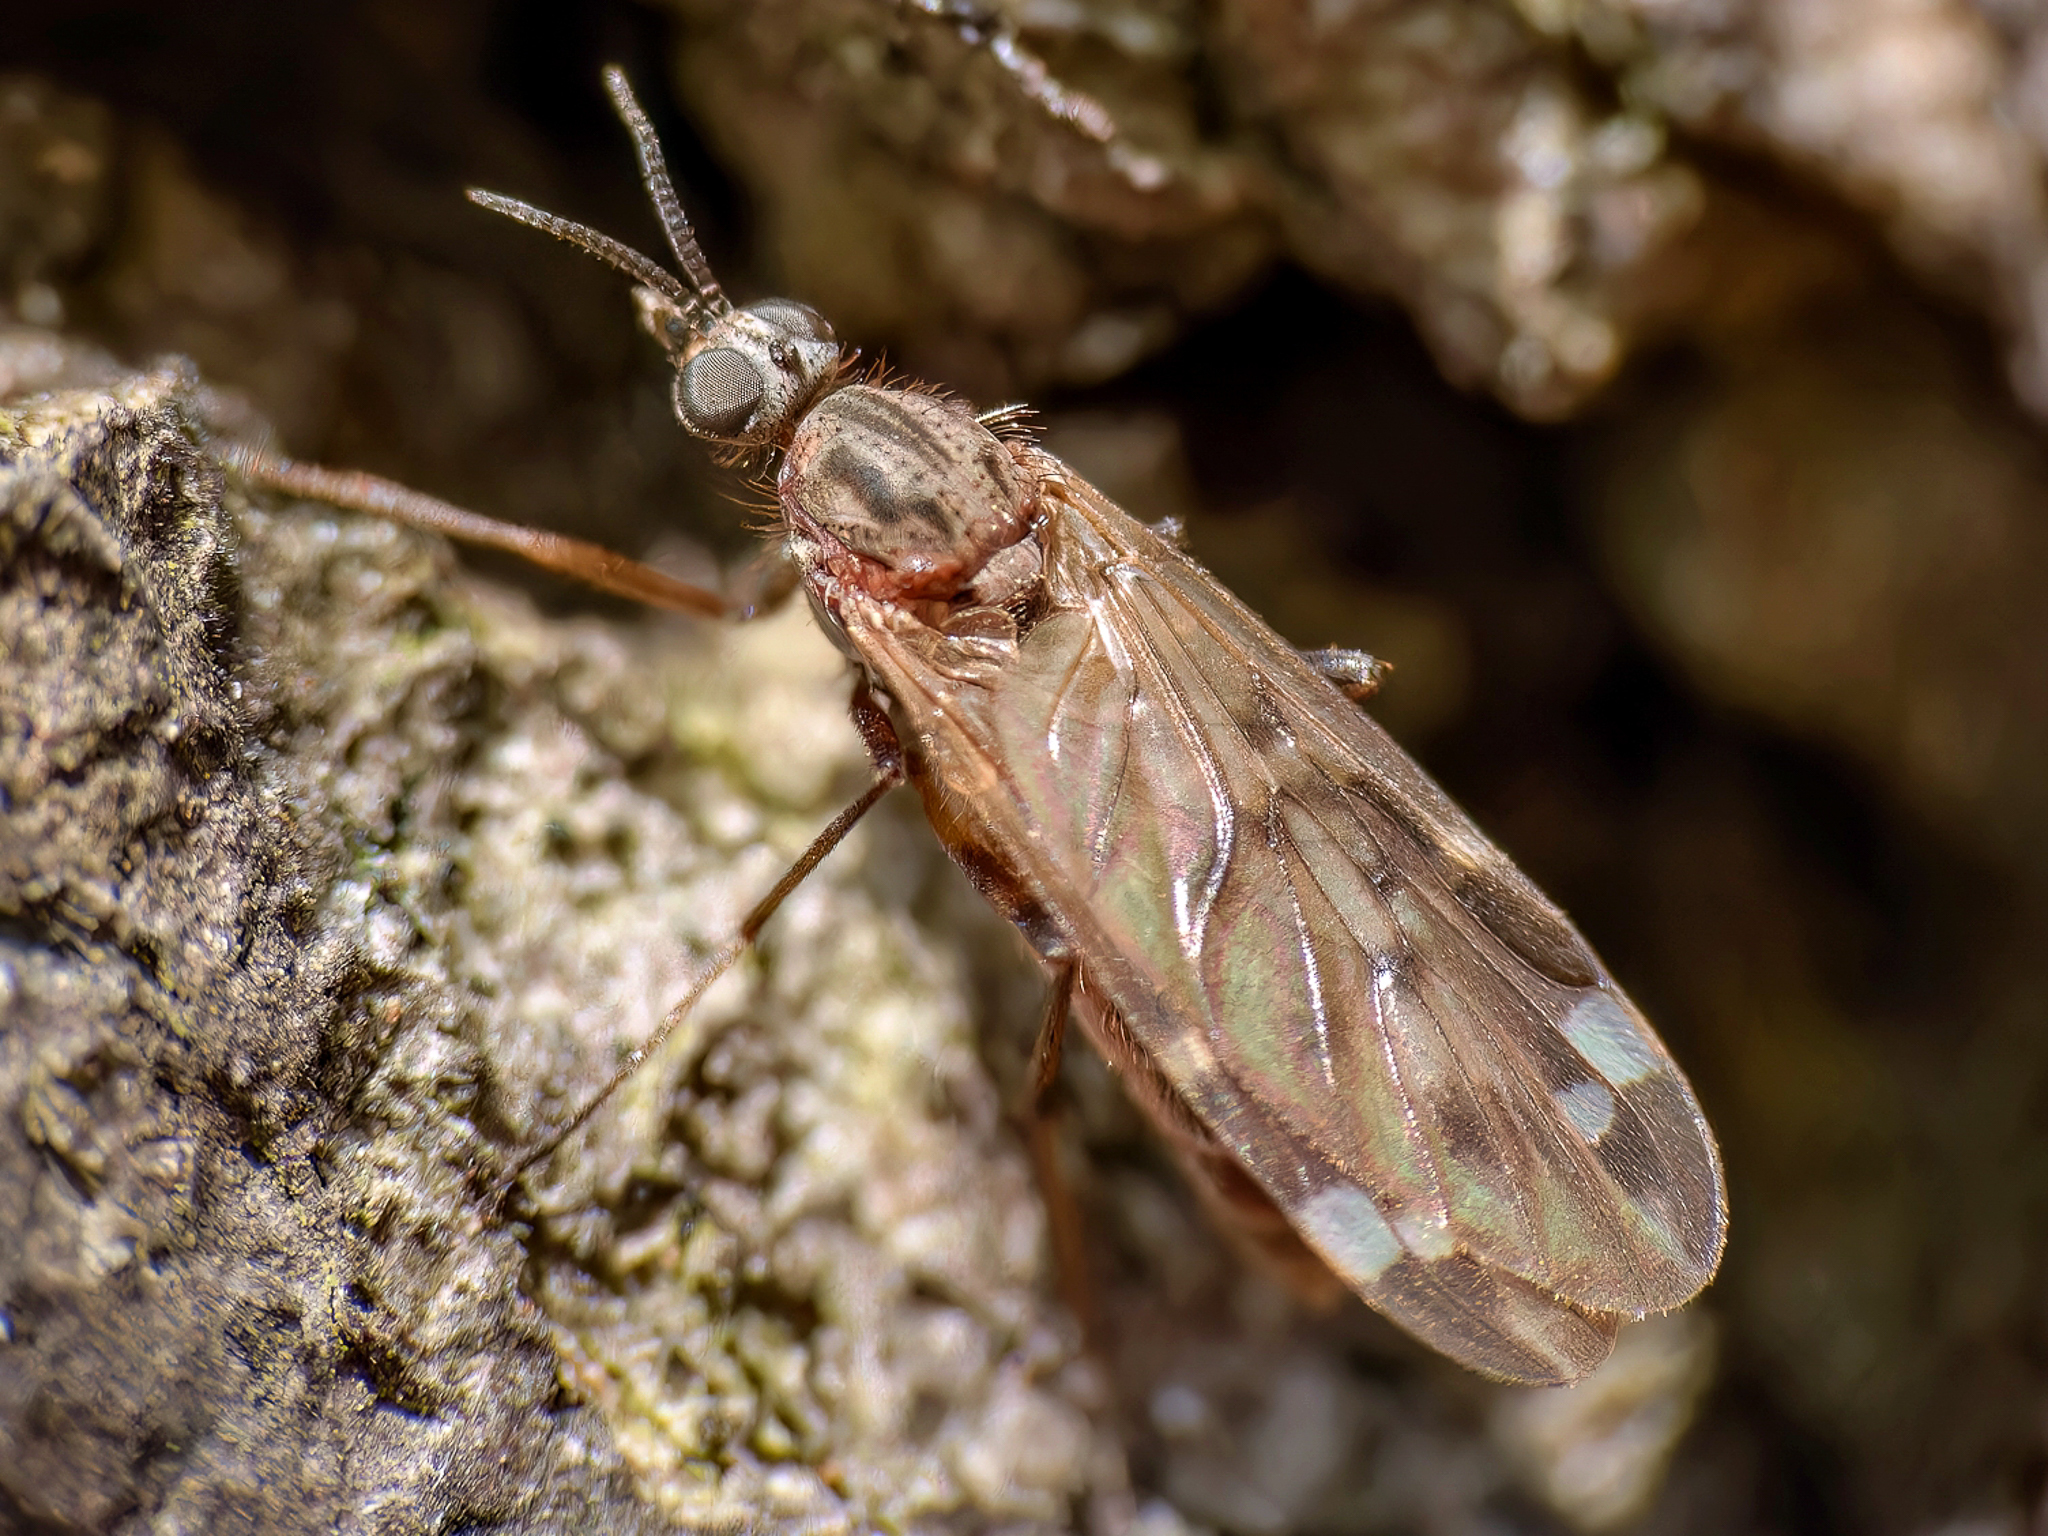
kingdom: Animalia
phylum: Arthropoda
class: Insecta
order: Diptera
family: Anisopodidae
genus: Sylvicola
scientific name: Sylvicola alternata
